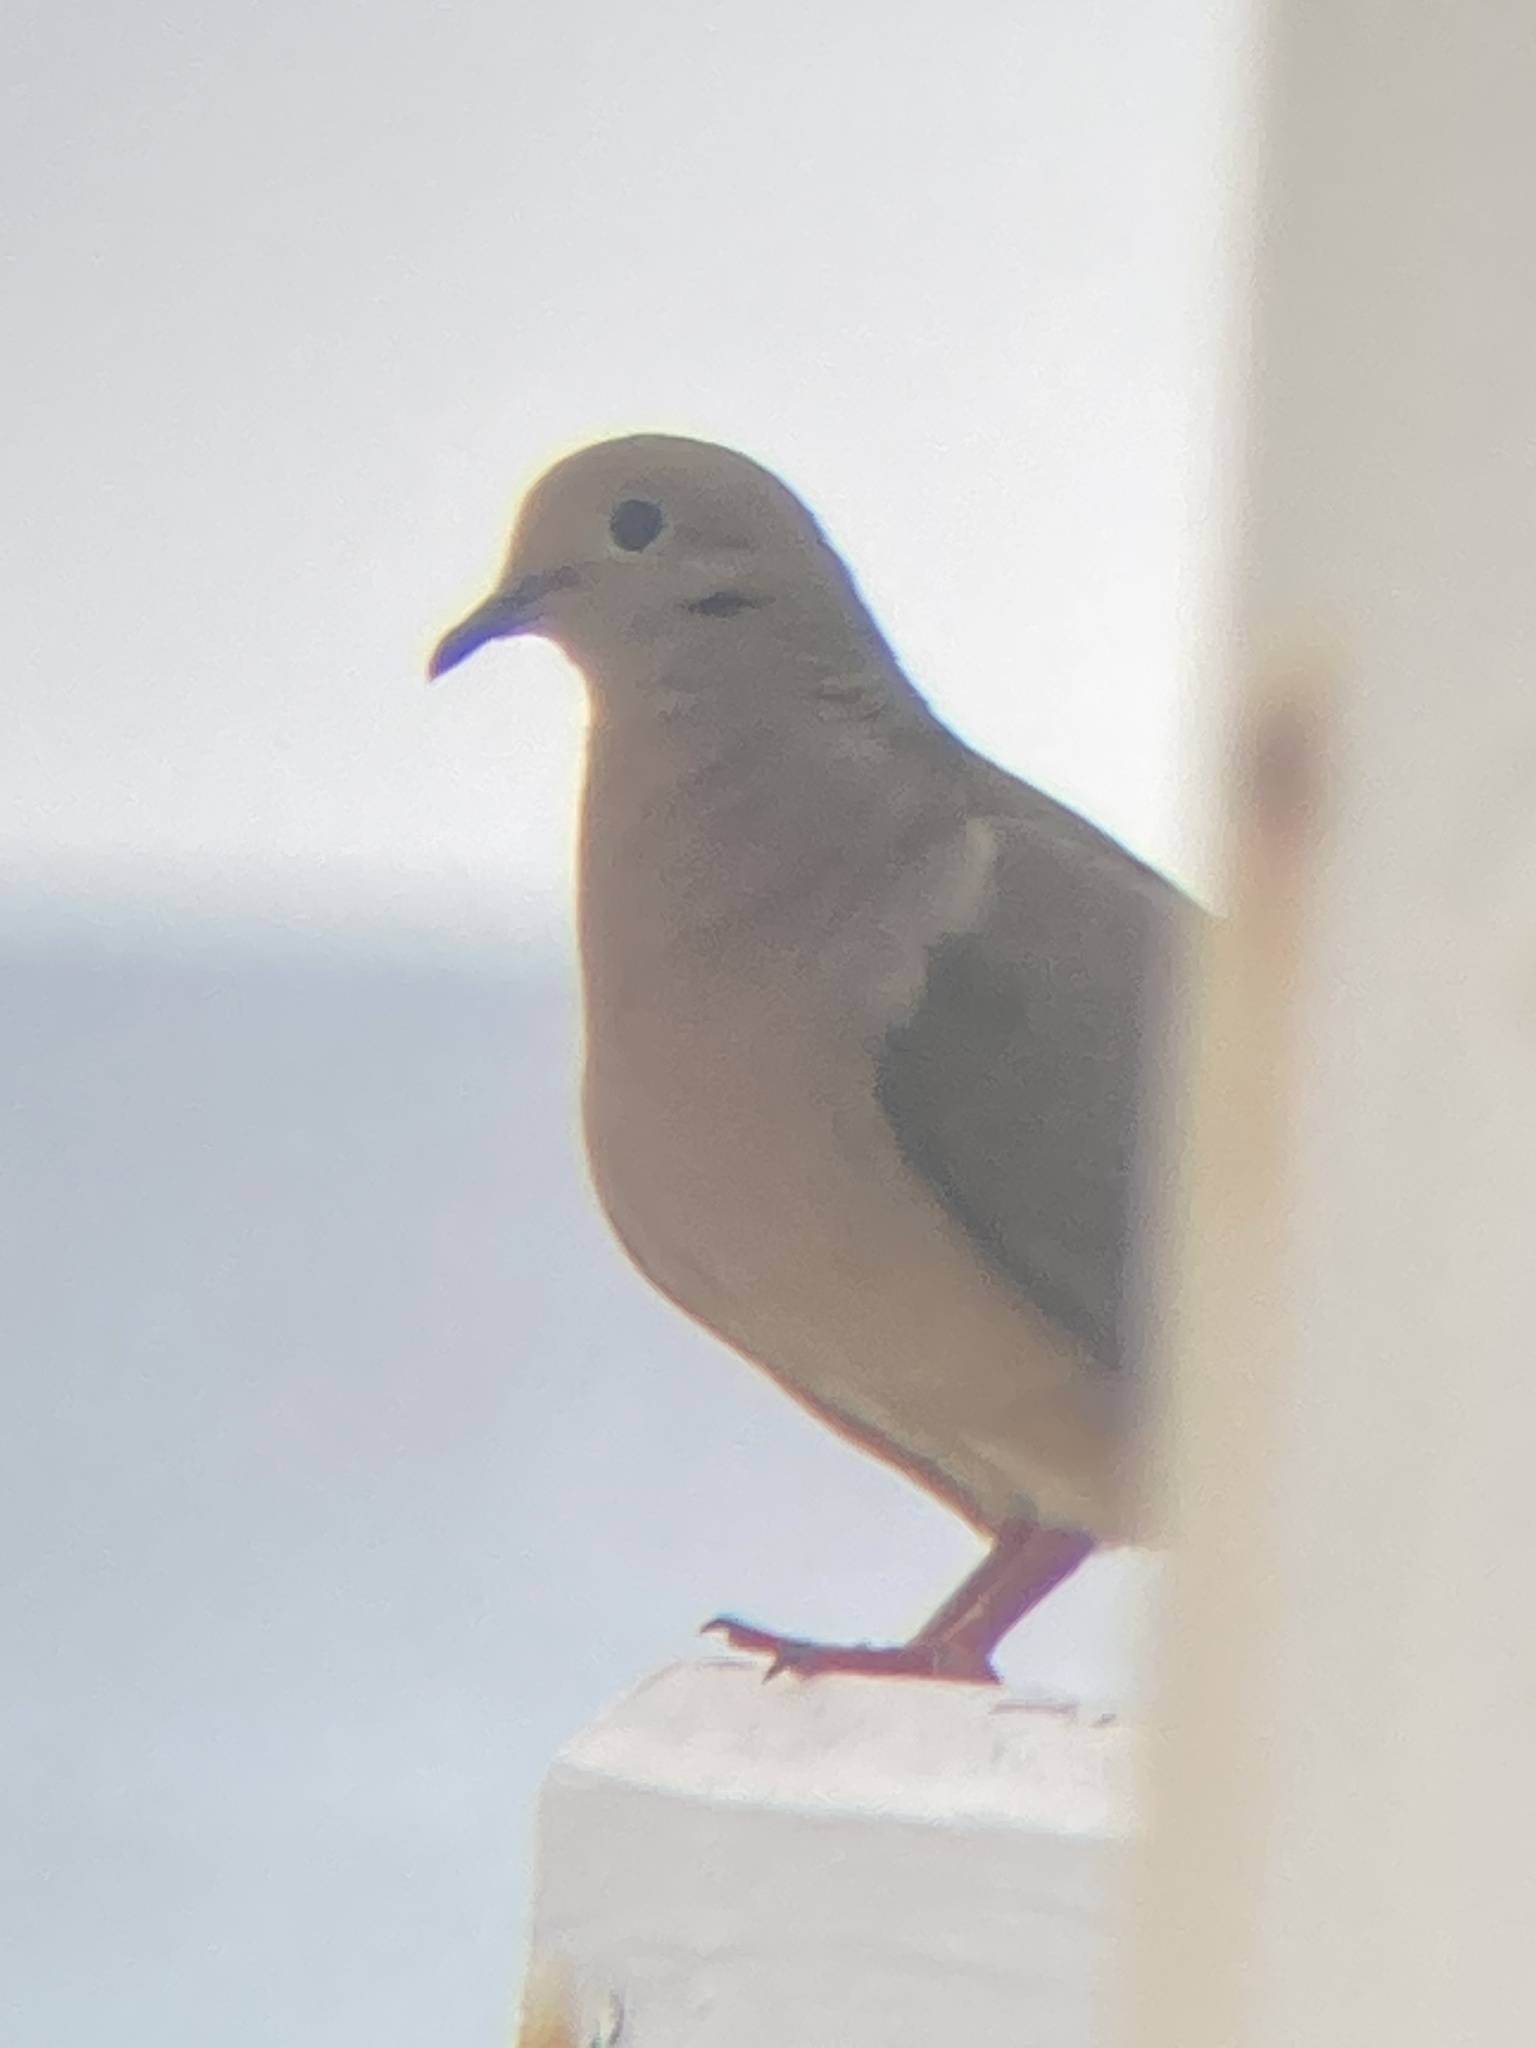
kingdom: Animalia
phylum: Chordata
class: Aves
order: Columbiformes
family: Columbidae
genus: Zenaida
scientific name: Zenaida macroura
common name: Mourning dove
